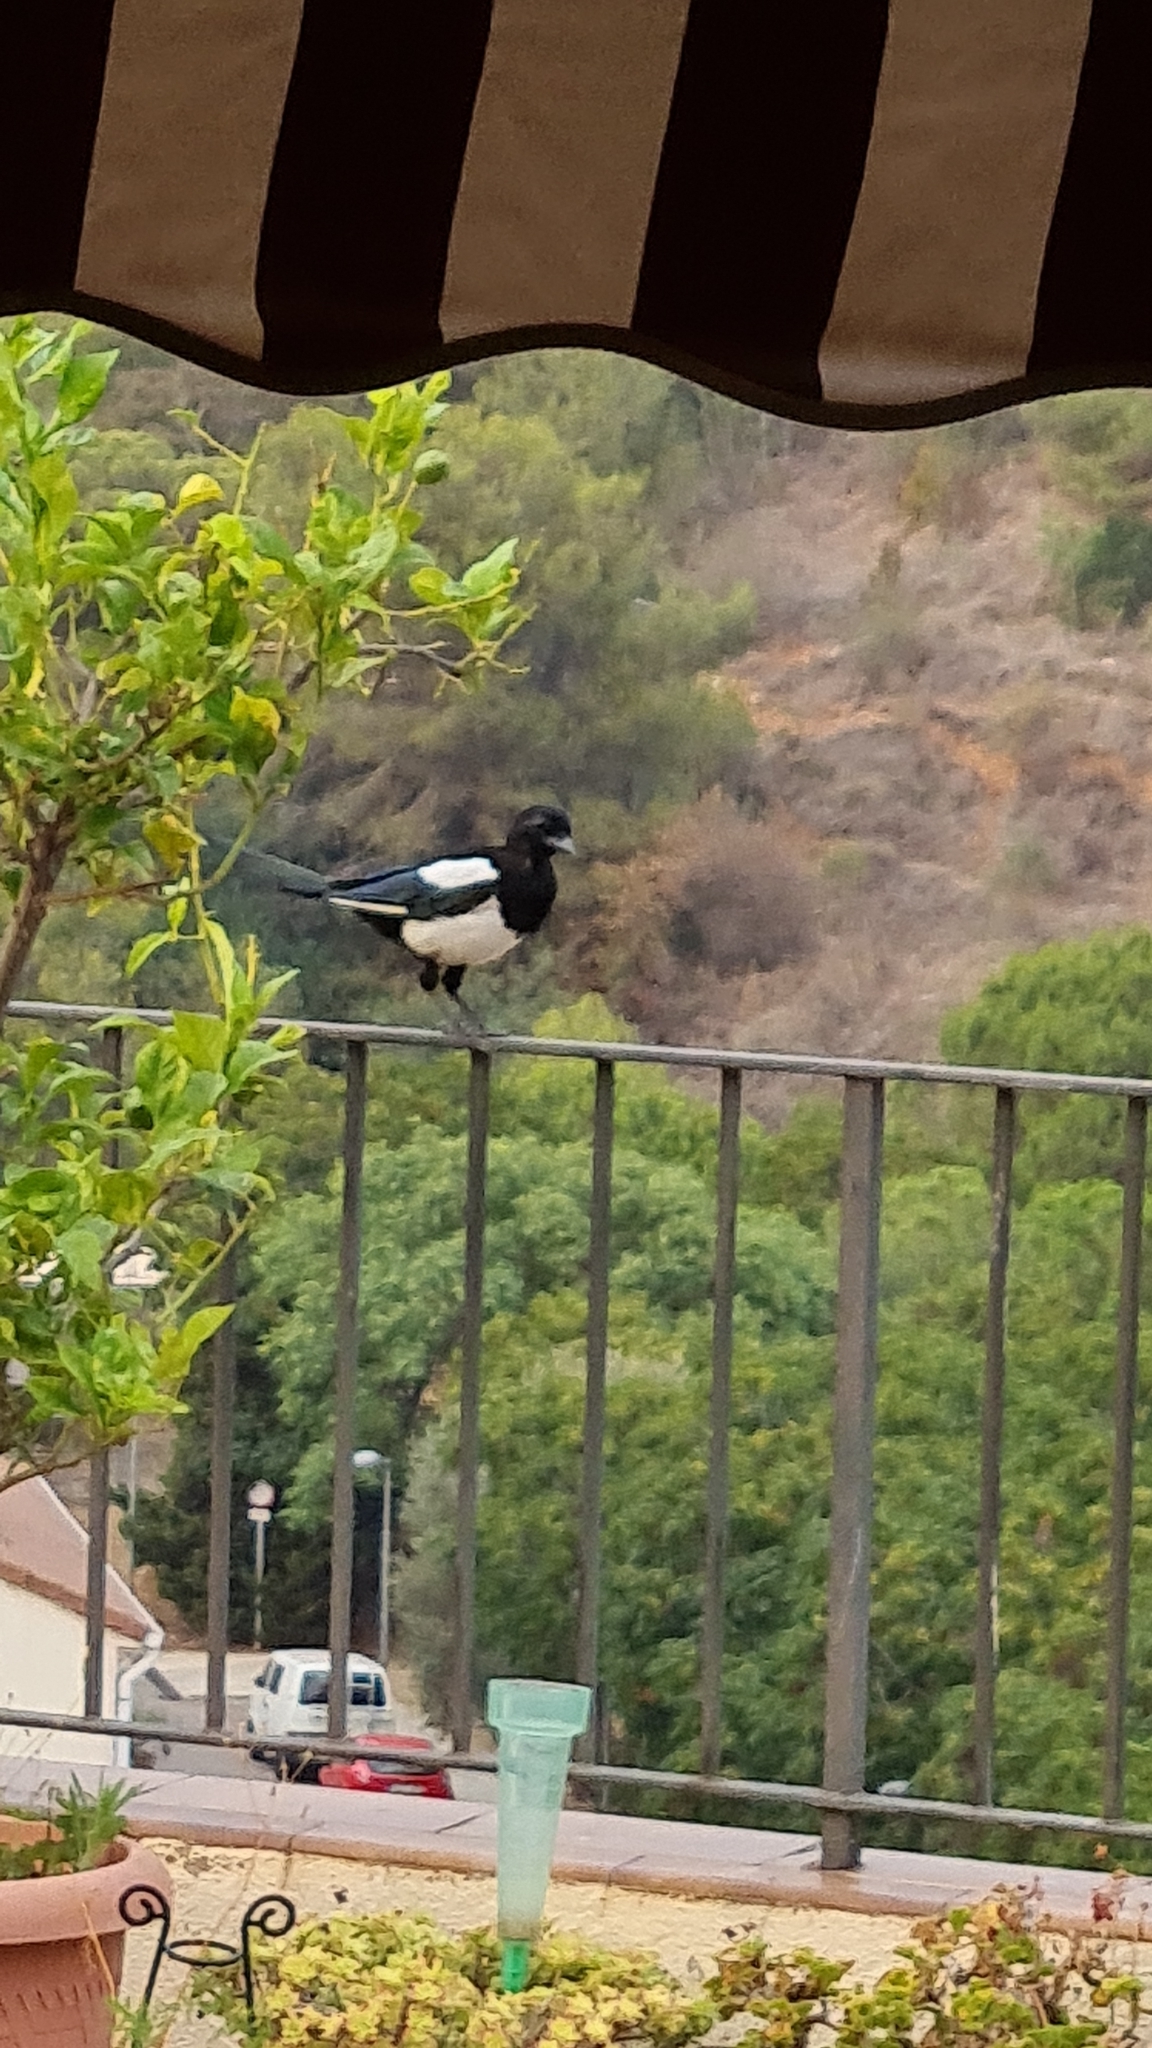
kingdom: Animalia
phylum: Chordata
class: Aves
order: Passeriformes
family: Corvidae
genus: Pica
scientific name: Pica pica
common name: Eurasian magpie
